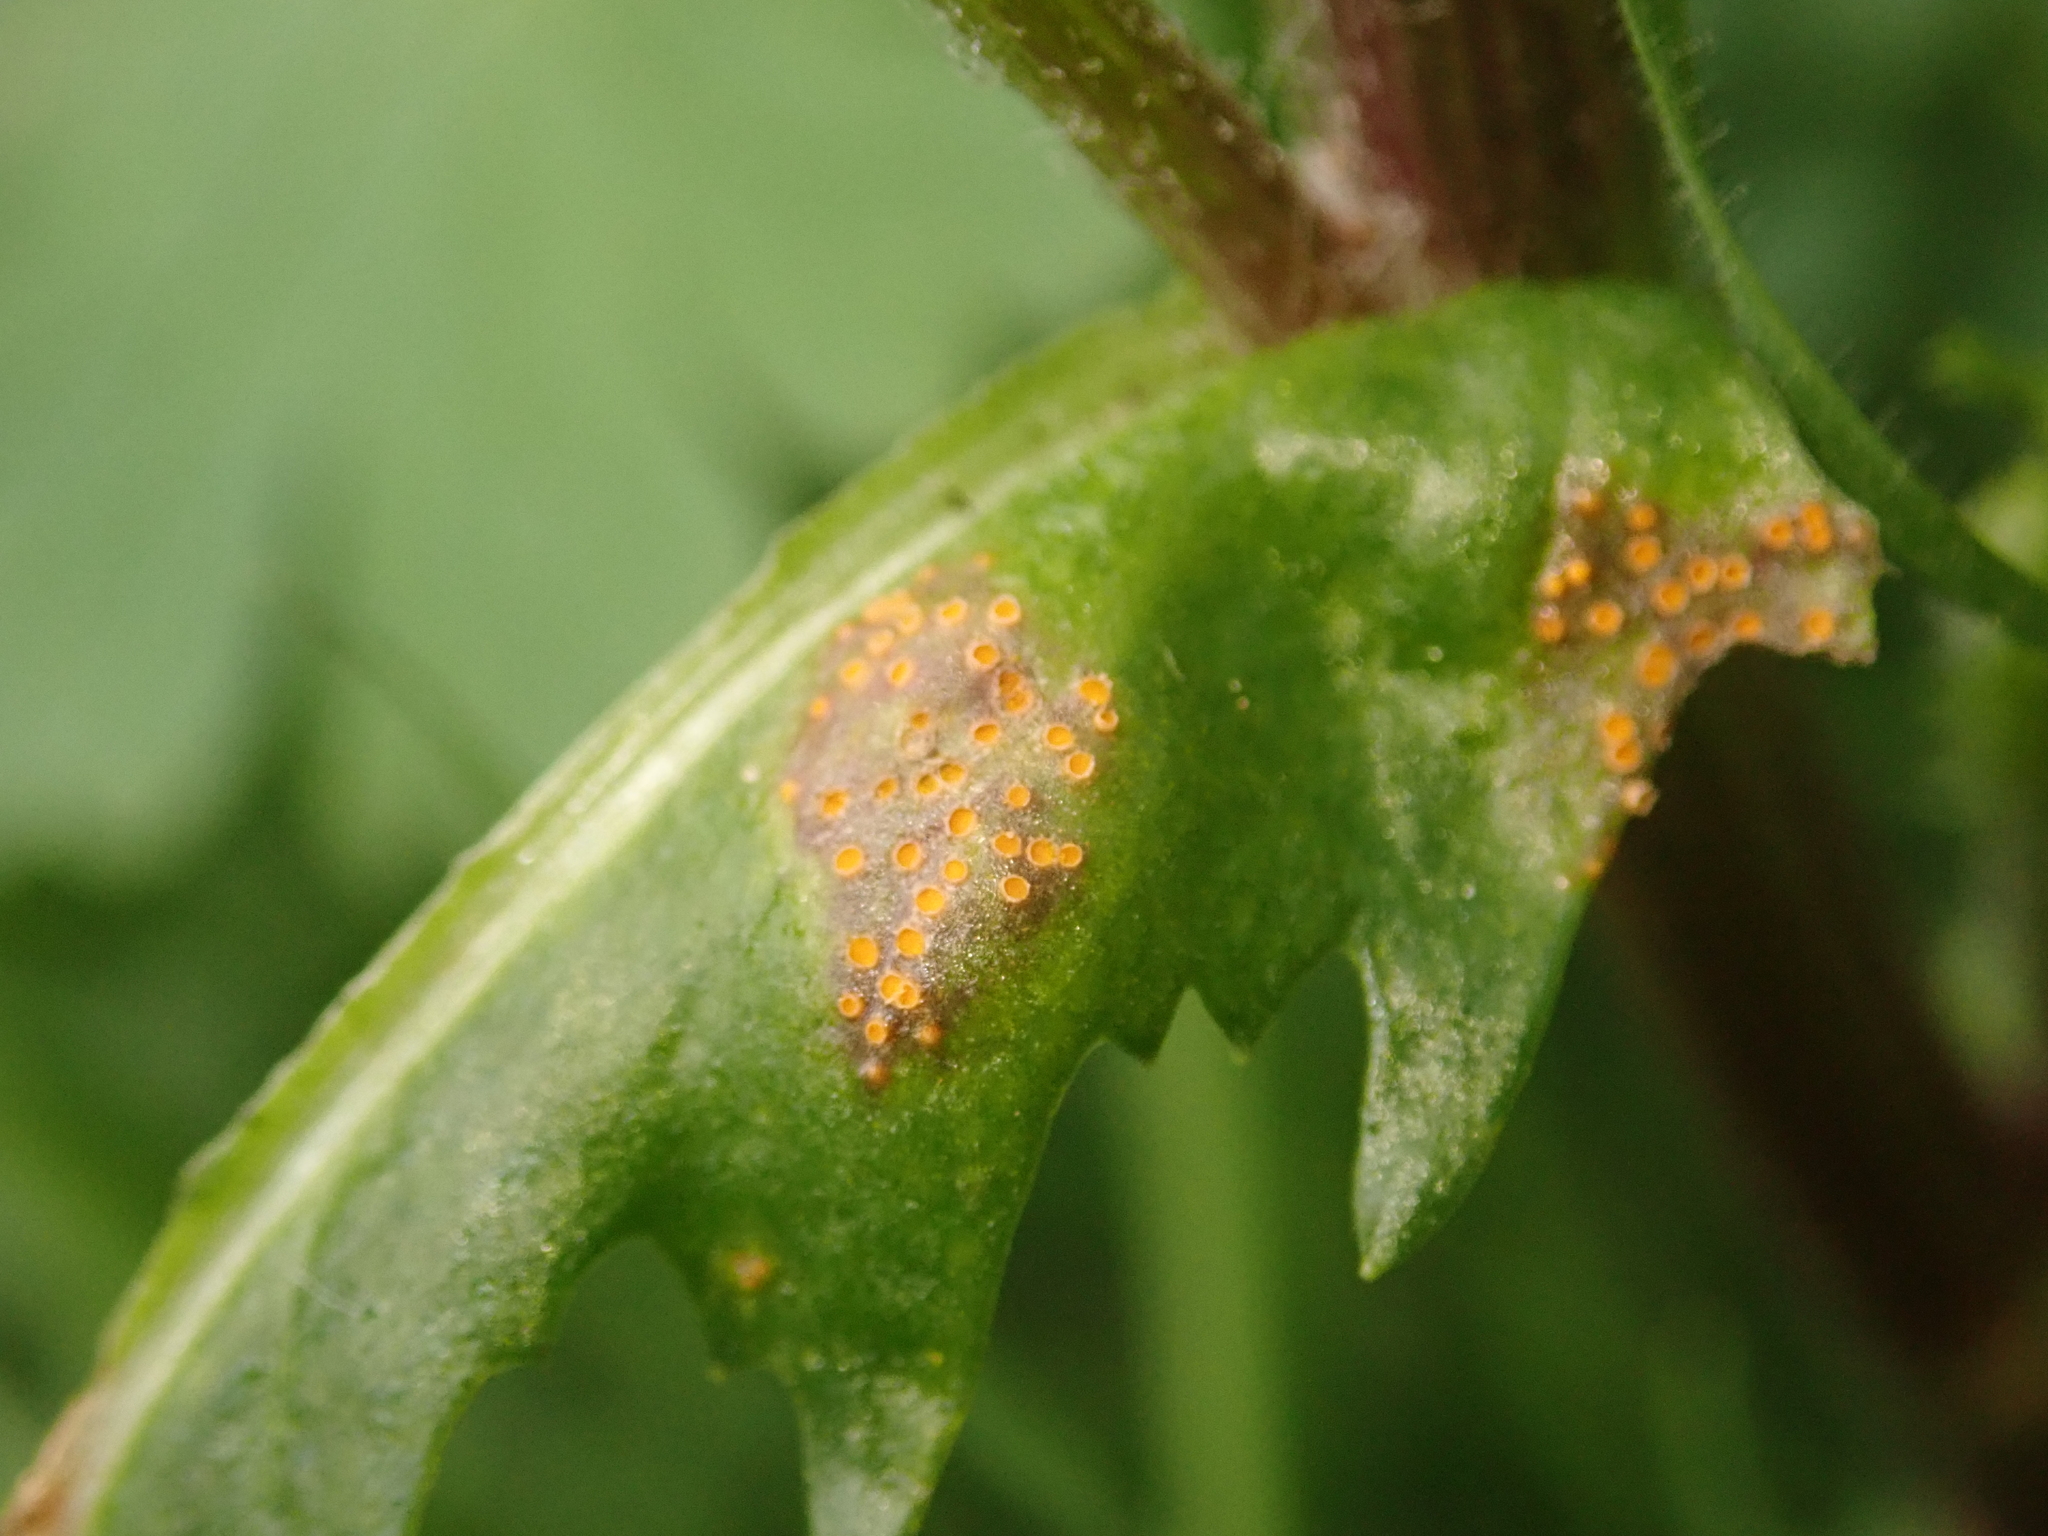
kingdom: Fungi
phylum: Basidiomycota
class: Pucciniomycetes
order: Pucciniales
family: Pucciniaceae
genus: Puccinia
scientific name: Puccinia lagenophorae
